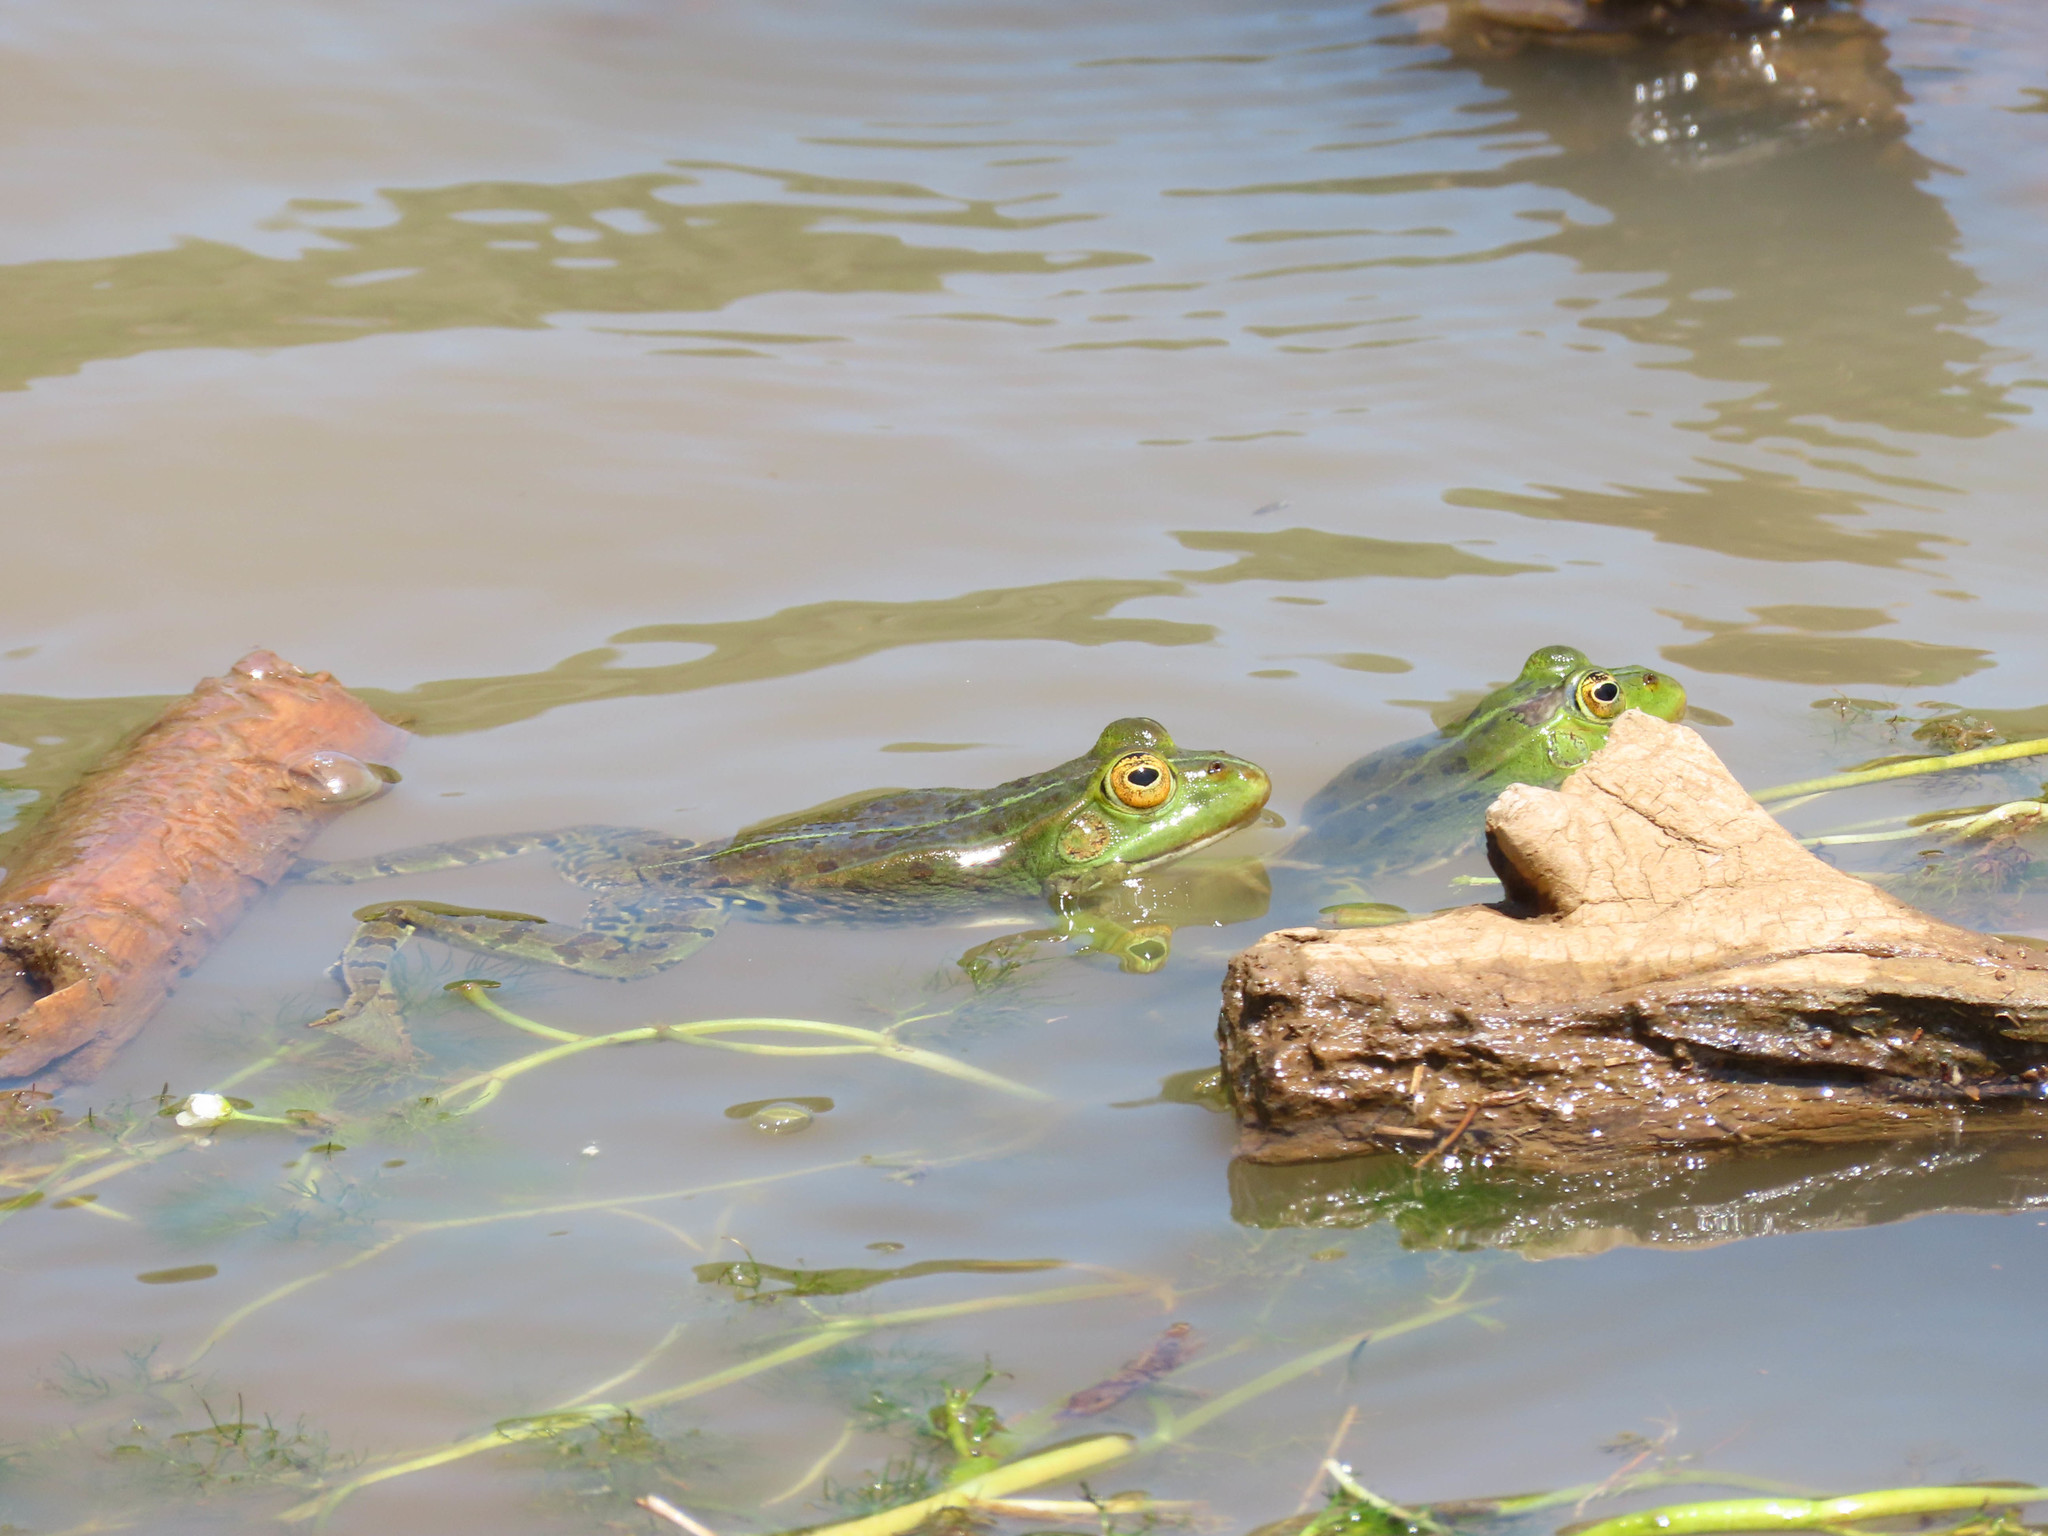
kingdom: Animalia
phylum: Chordata
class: Amphibia
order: Anura
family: Ranidae
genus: Pelophylax
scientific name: Pelophylax
